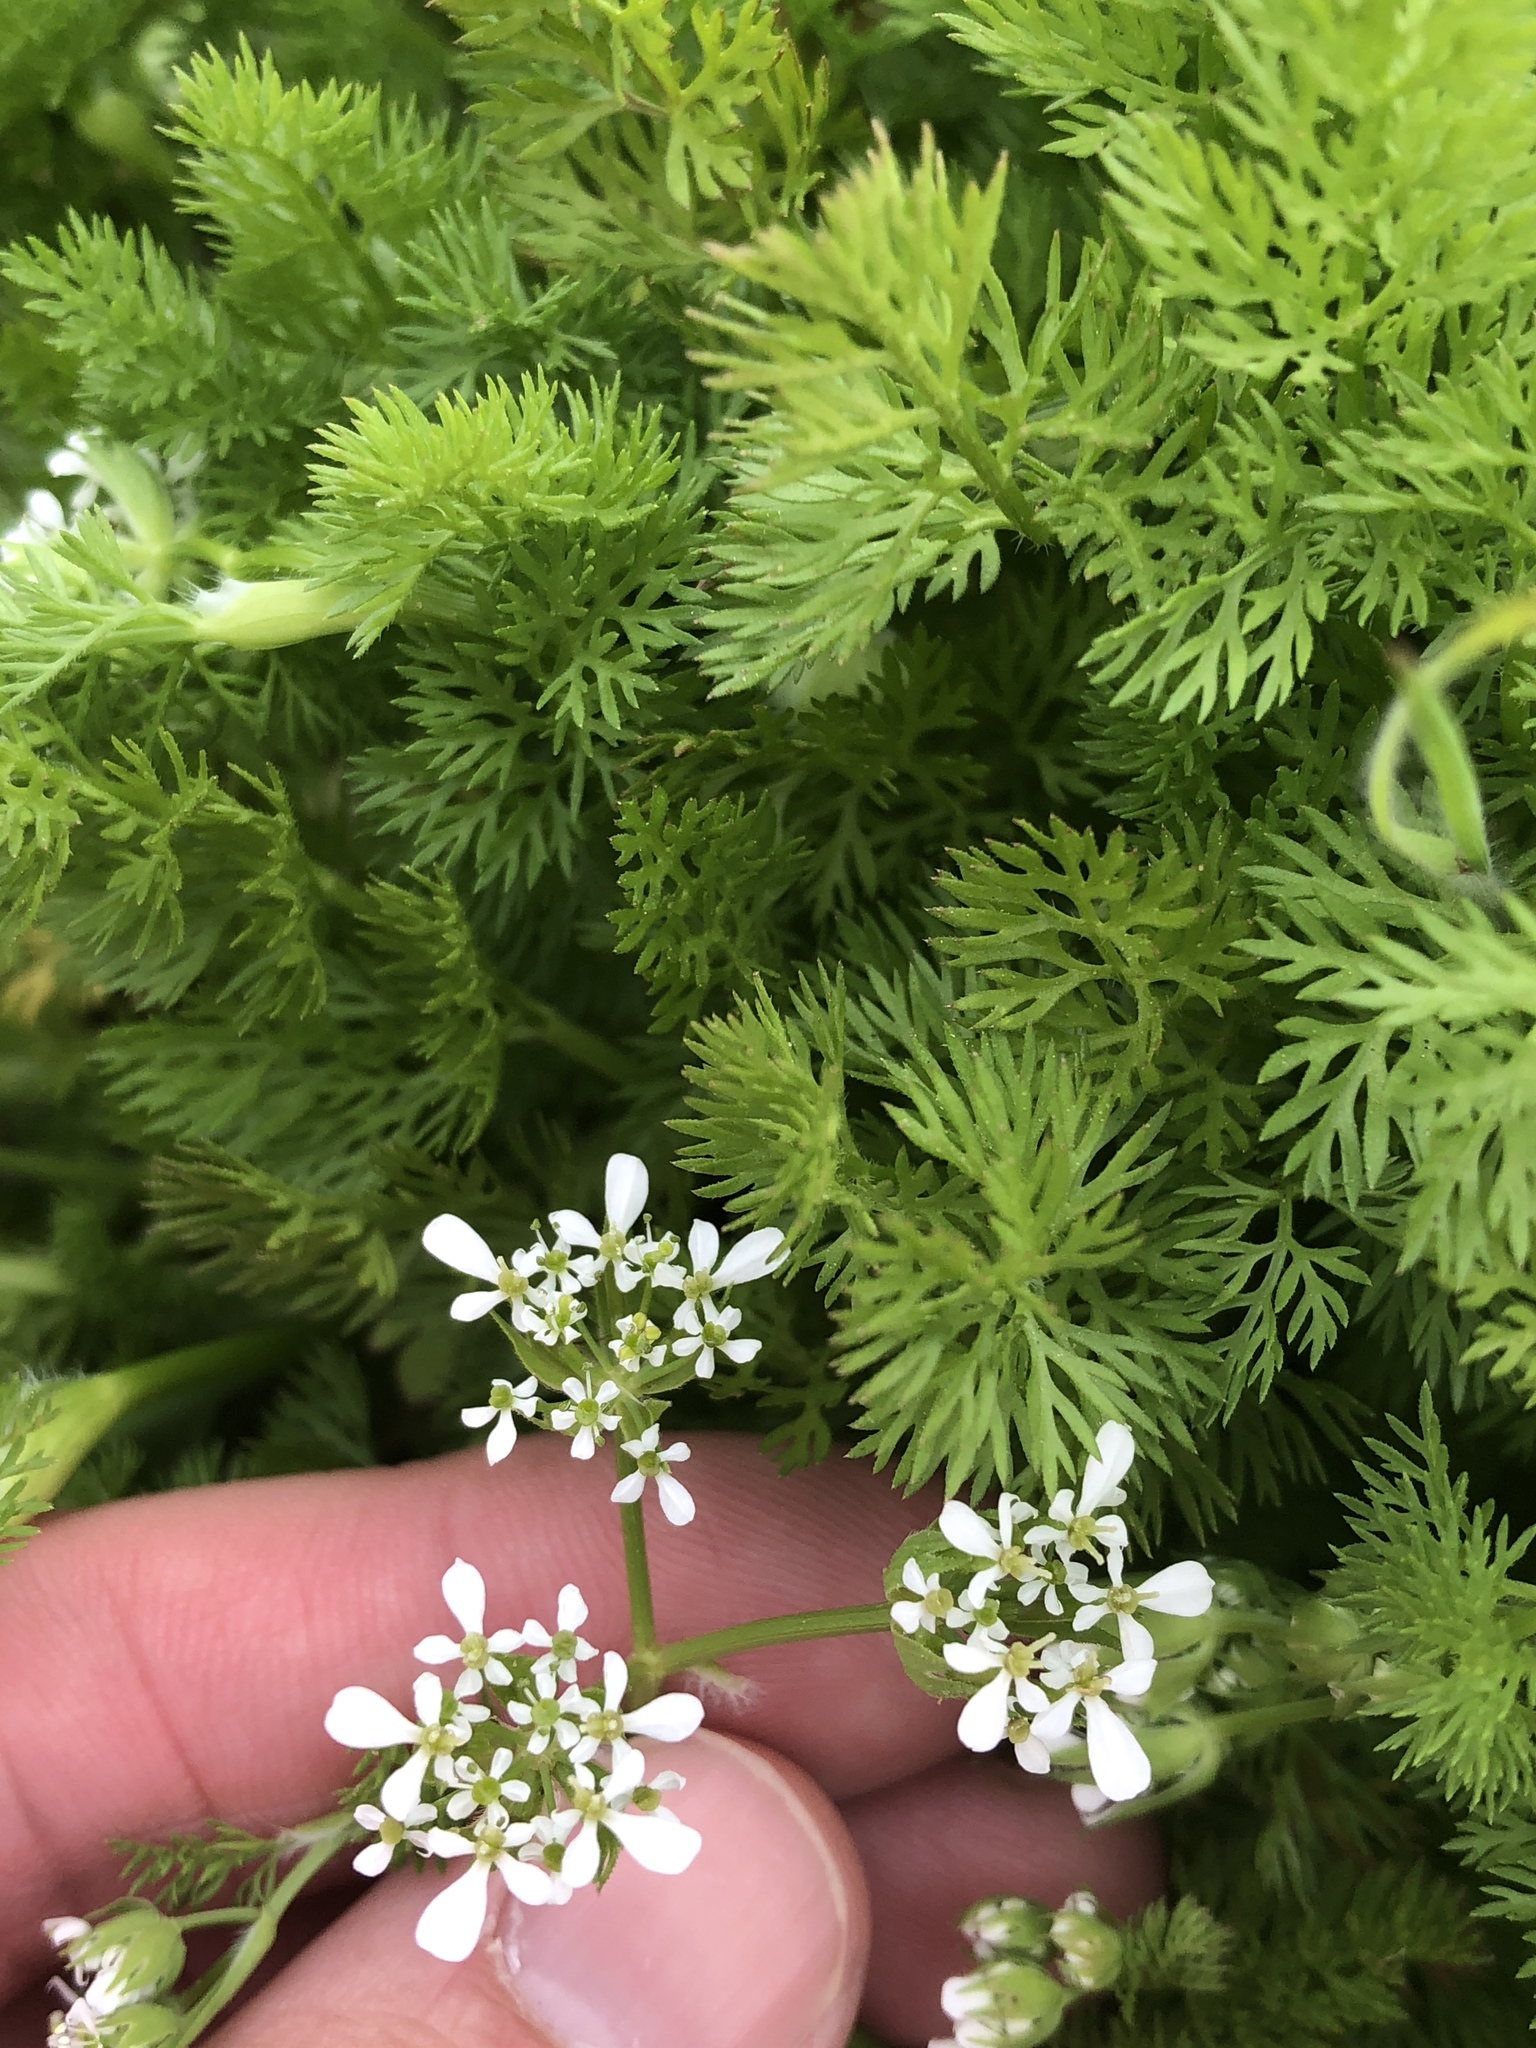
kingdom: Plantae
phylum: Tracheophyta
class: Magnoliopsida
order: Apiales
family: Apiaceae
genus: Scandix
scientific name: Scandix pecten-veneris
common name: Shepherd's-needle
